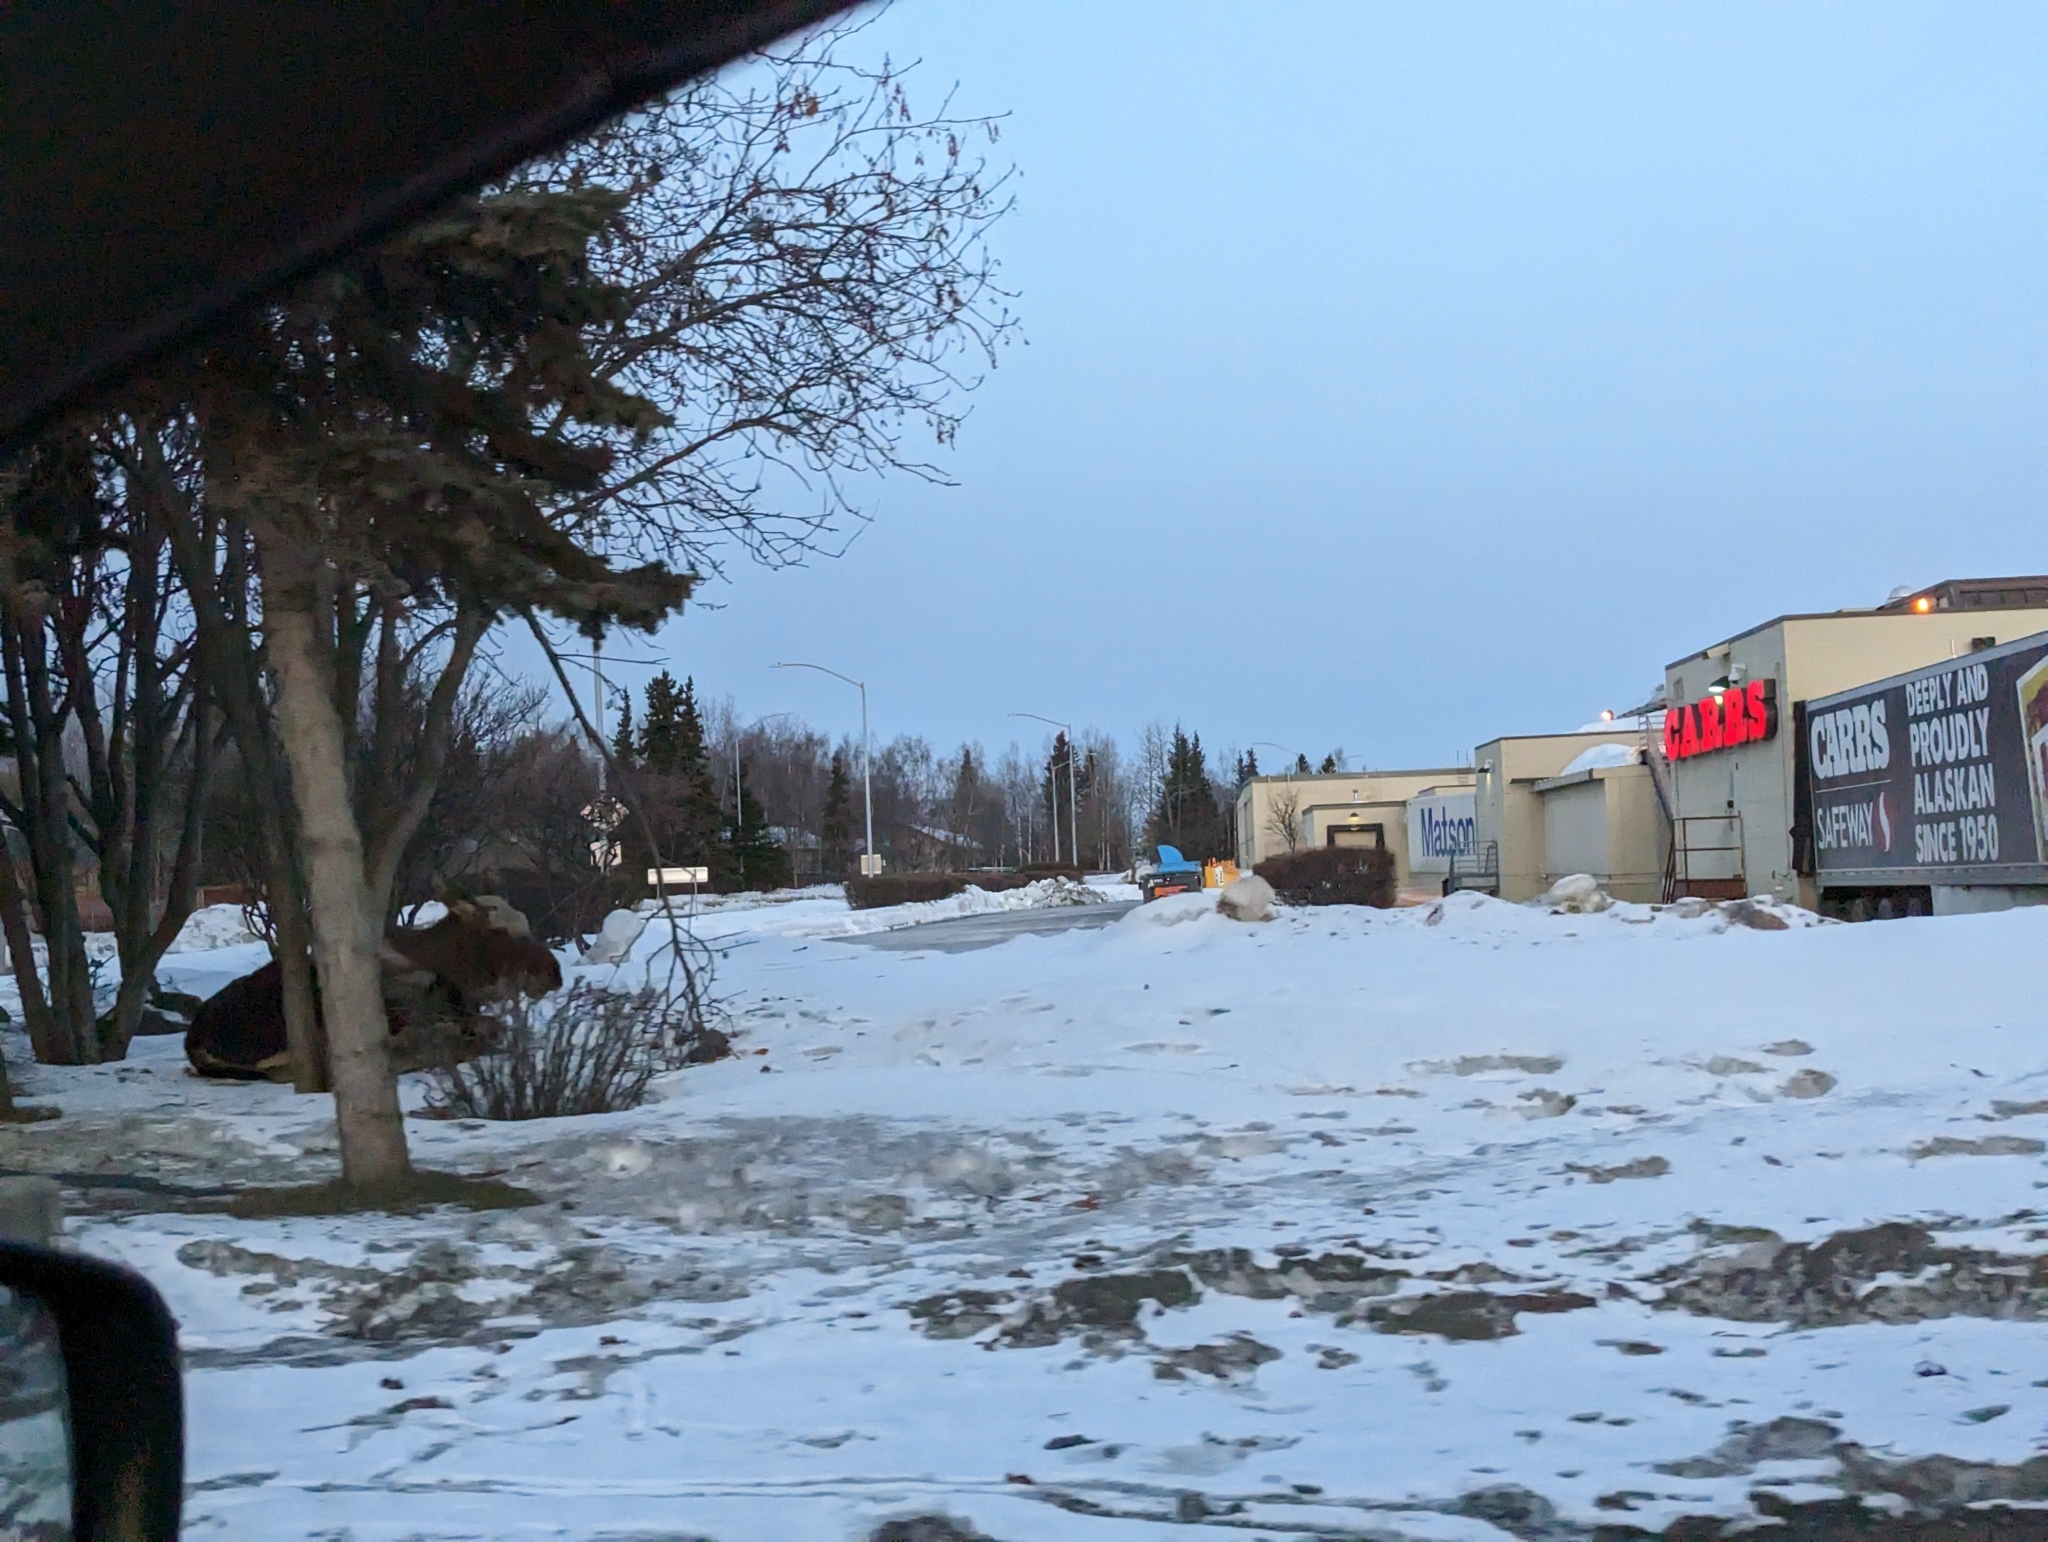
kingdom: Animalia
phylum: Chordata
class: Mammalia
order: Artiodactyla
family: Cervidae
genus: Alces
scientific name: Alces alces
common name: Moose
